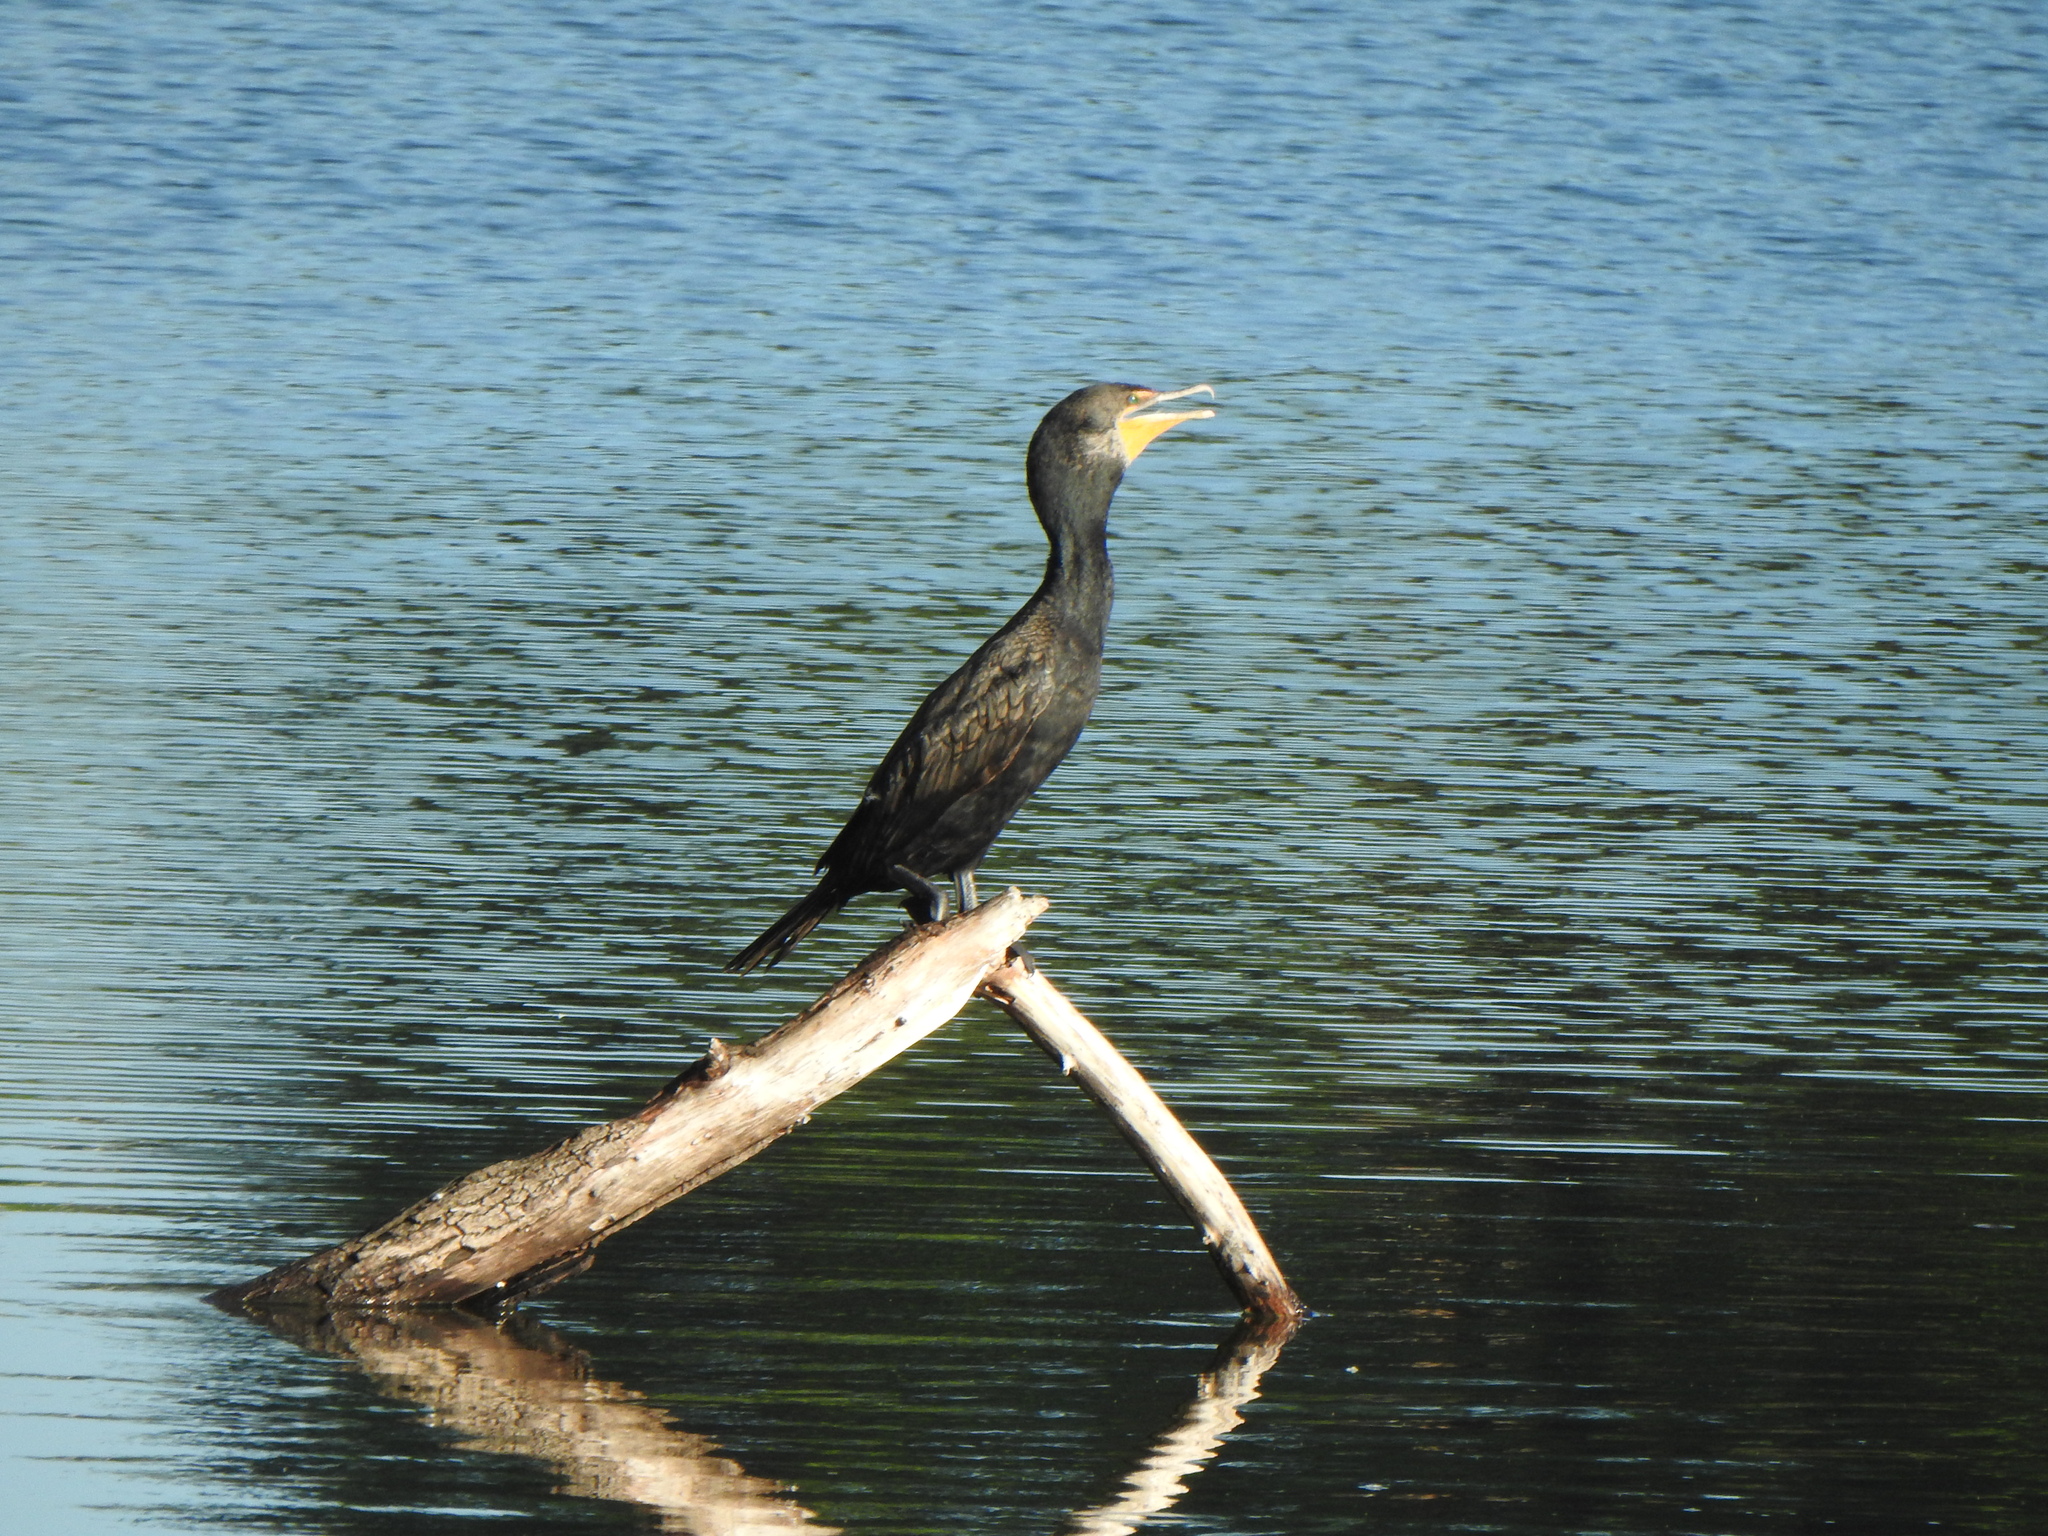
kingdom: Animalia
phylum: Chordata
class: Aves
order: Suliformes
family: Phalacrocoracidae
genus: Phalacrocorax
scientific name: Phalacrocorax auritus
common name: Double-crested cormorant
